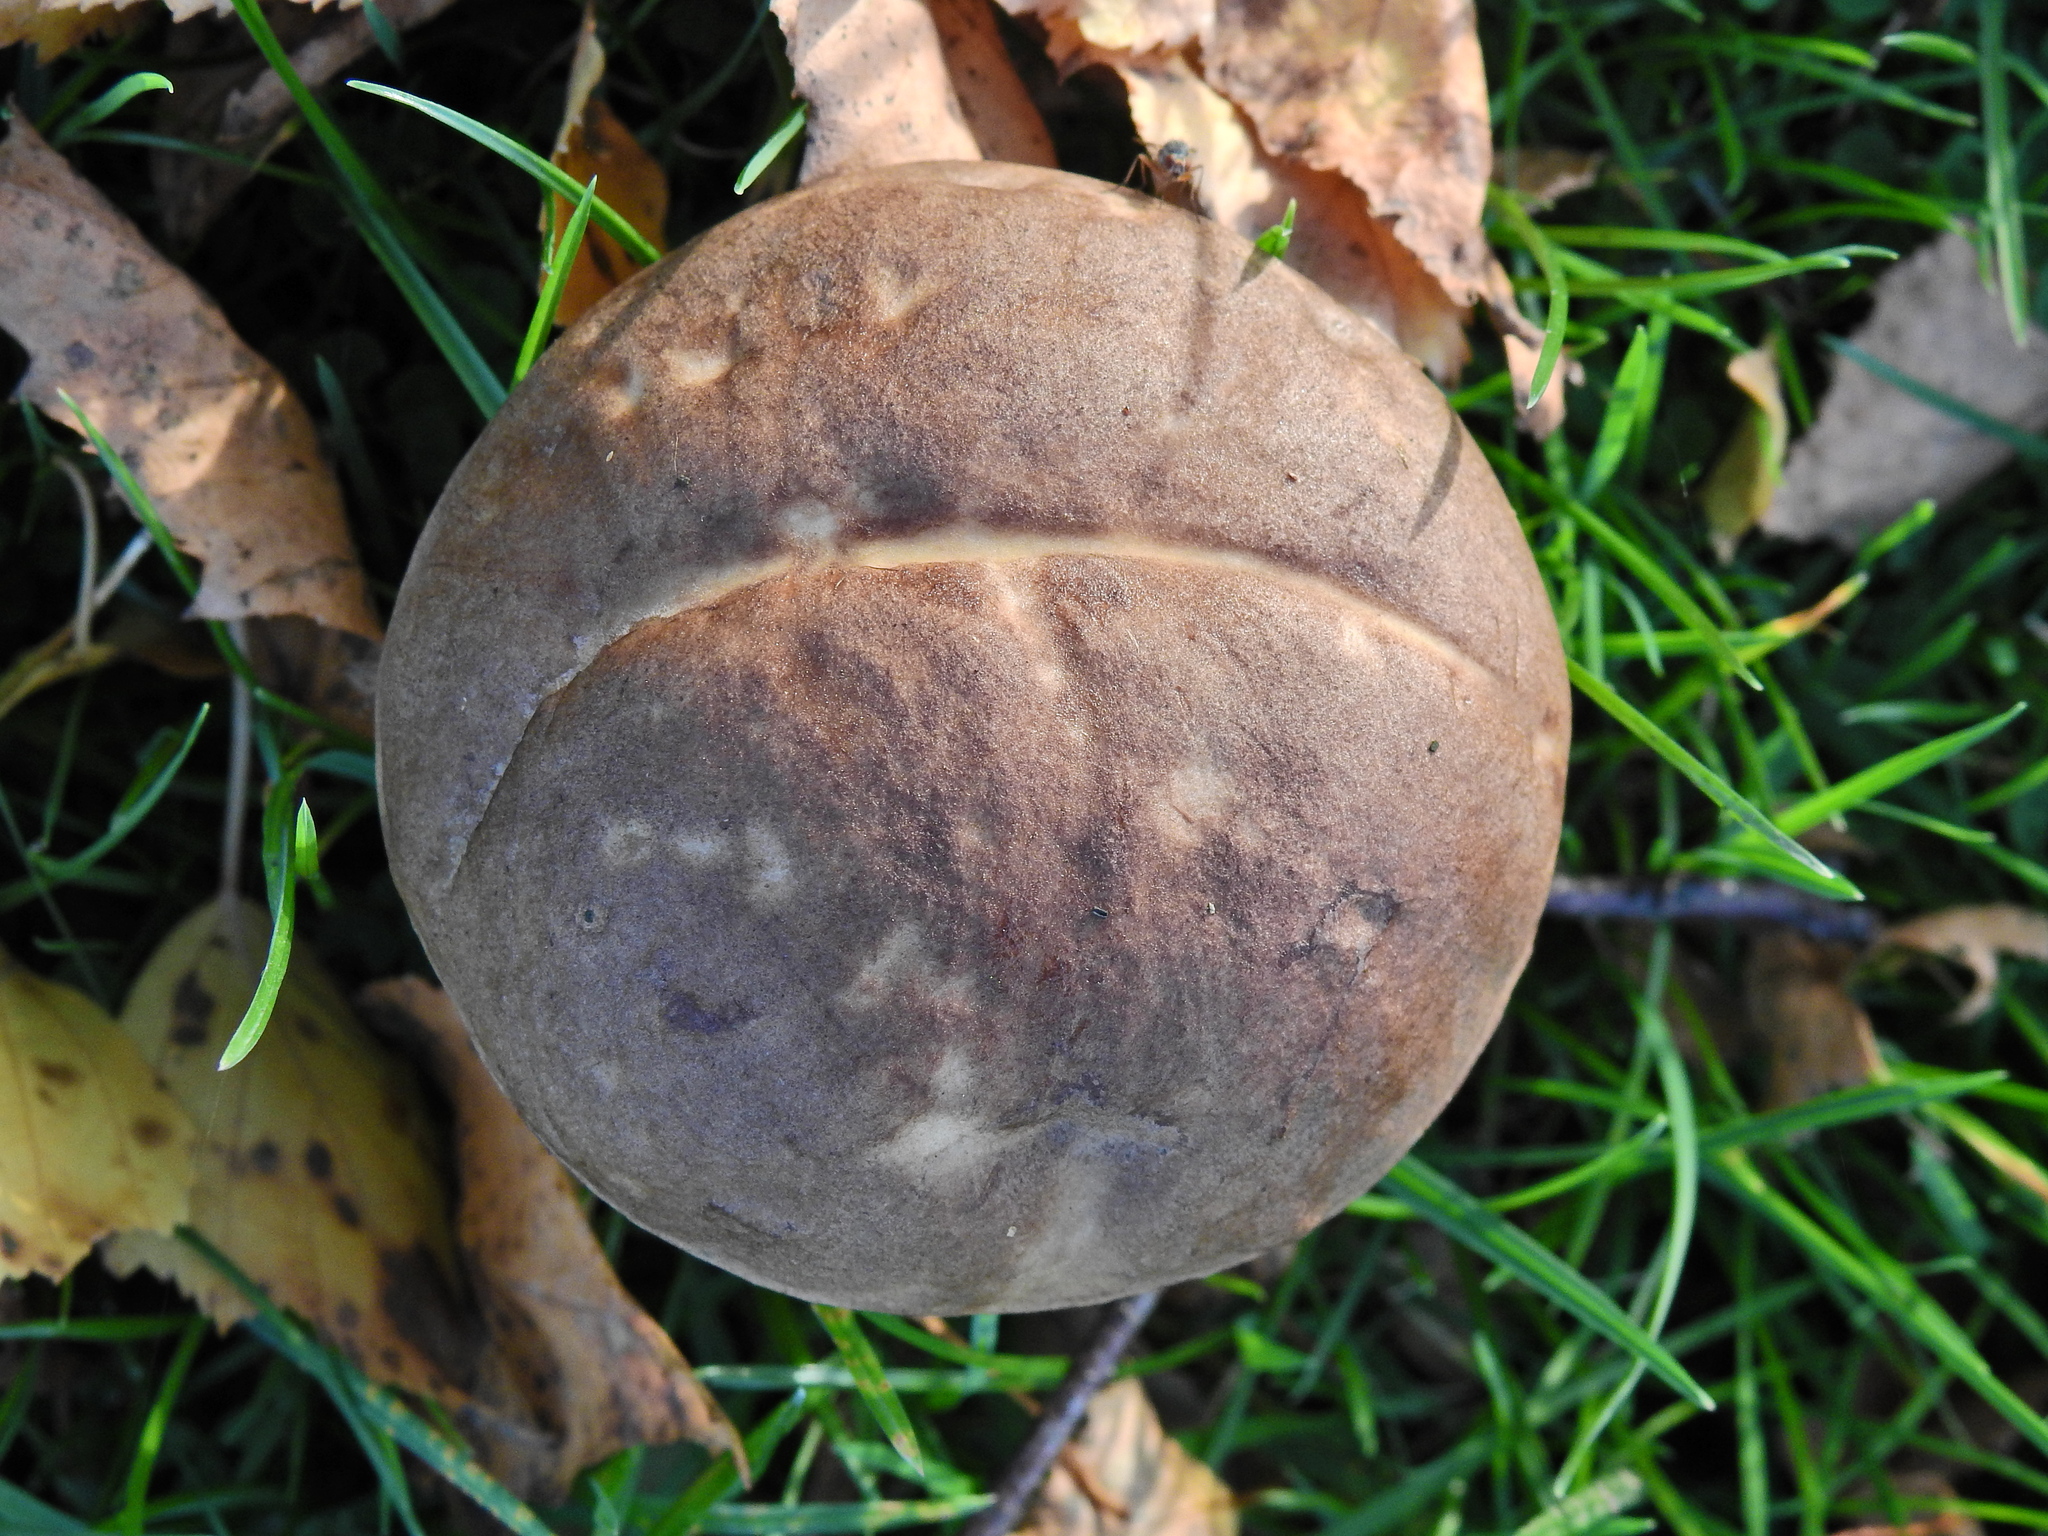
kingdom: Fungi
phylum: Basidiomycota
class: Agaricomycetes
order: Boletales
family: Boletaceae
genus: Leccinum
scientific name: Leccinum scabrum
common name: Blushing bolete
